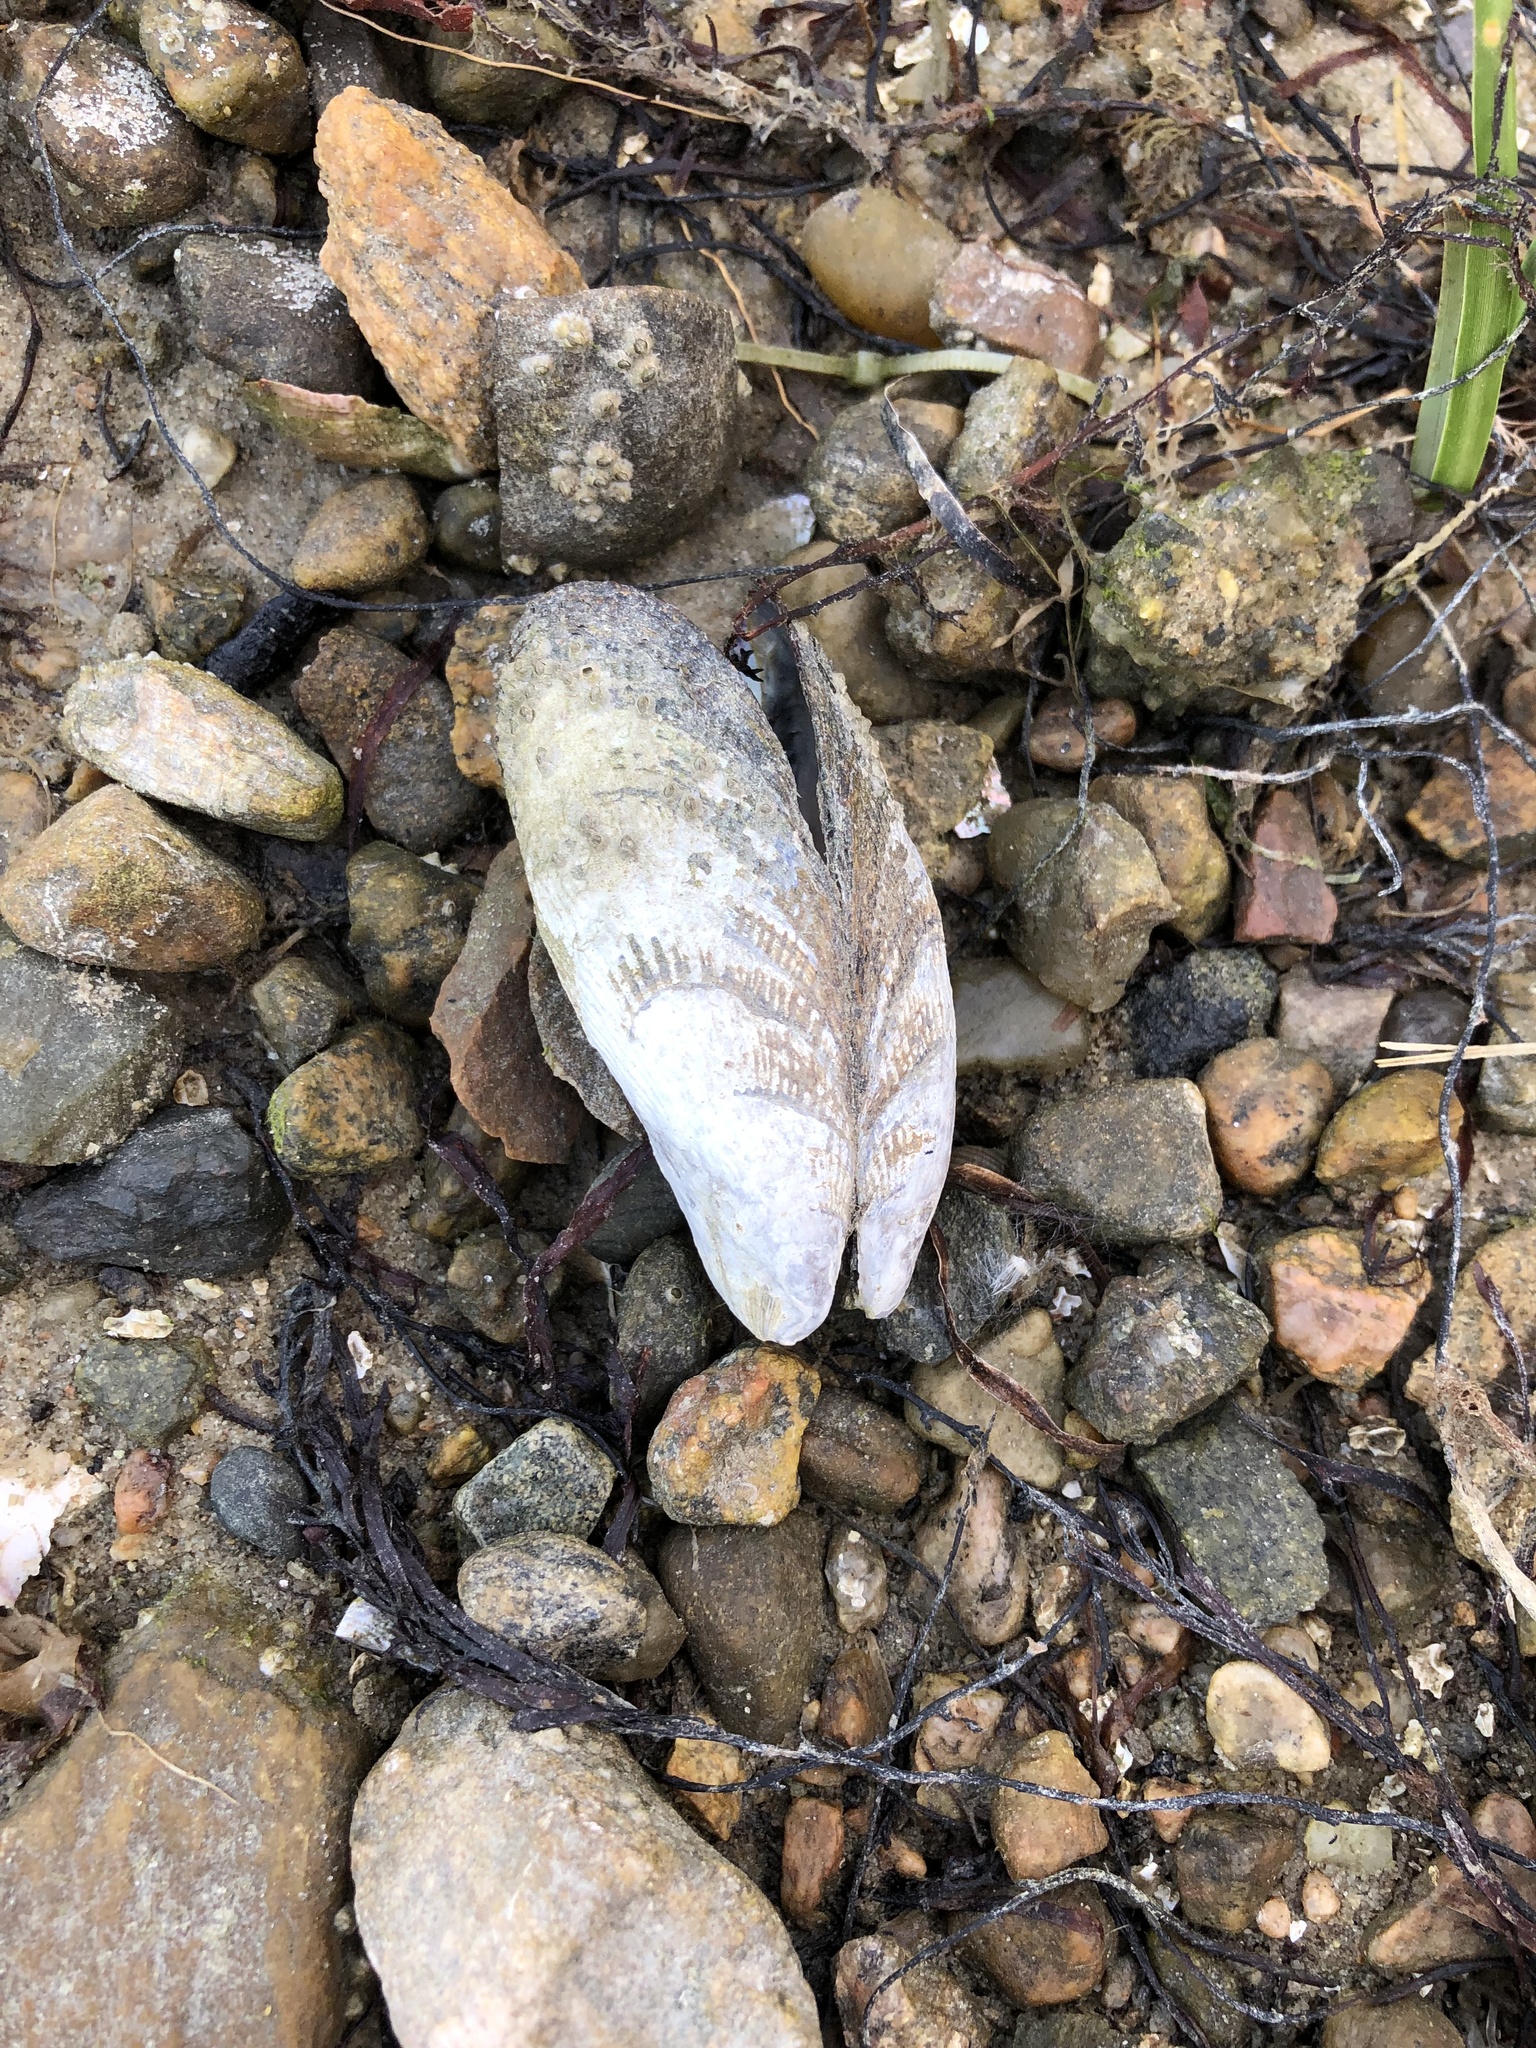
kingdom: Animalia
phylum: Mollusca
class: Bivalvia
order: Mytilida
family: Mytilidae
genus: Geukensia
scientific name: Geukensia demissa
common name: Ribbed mussel
